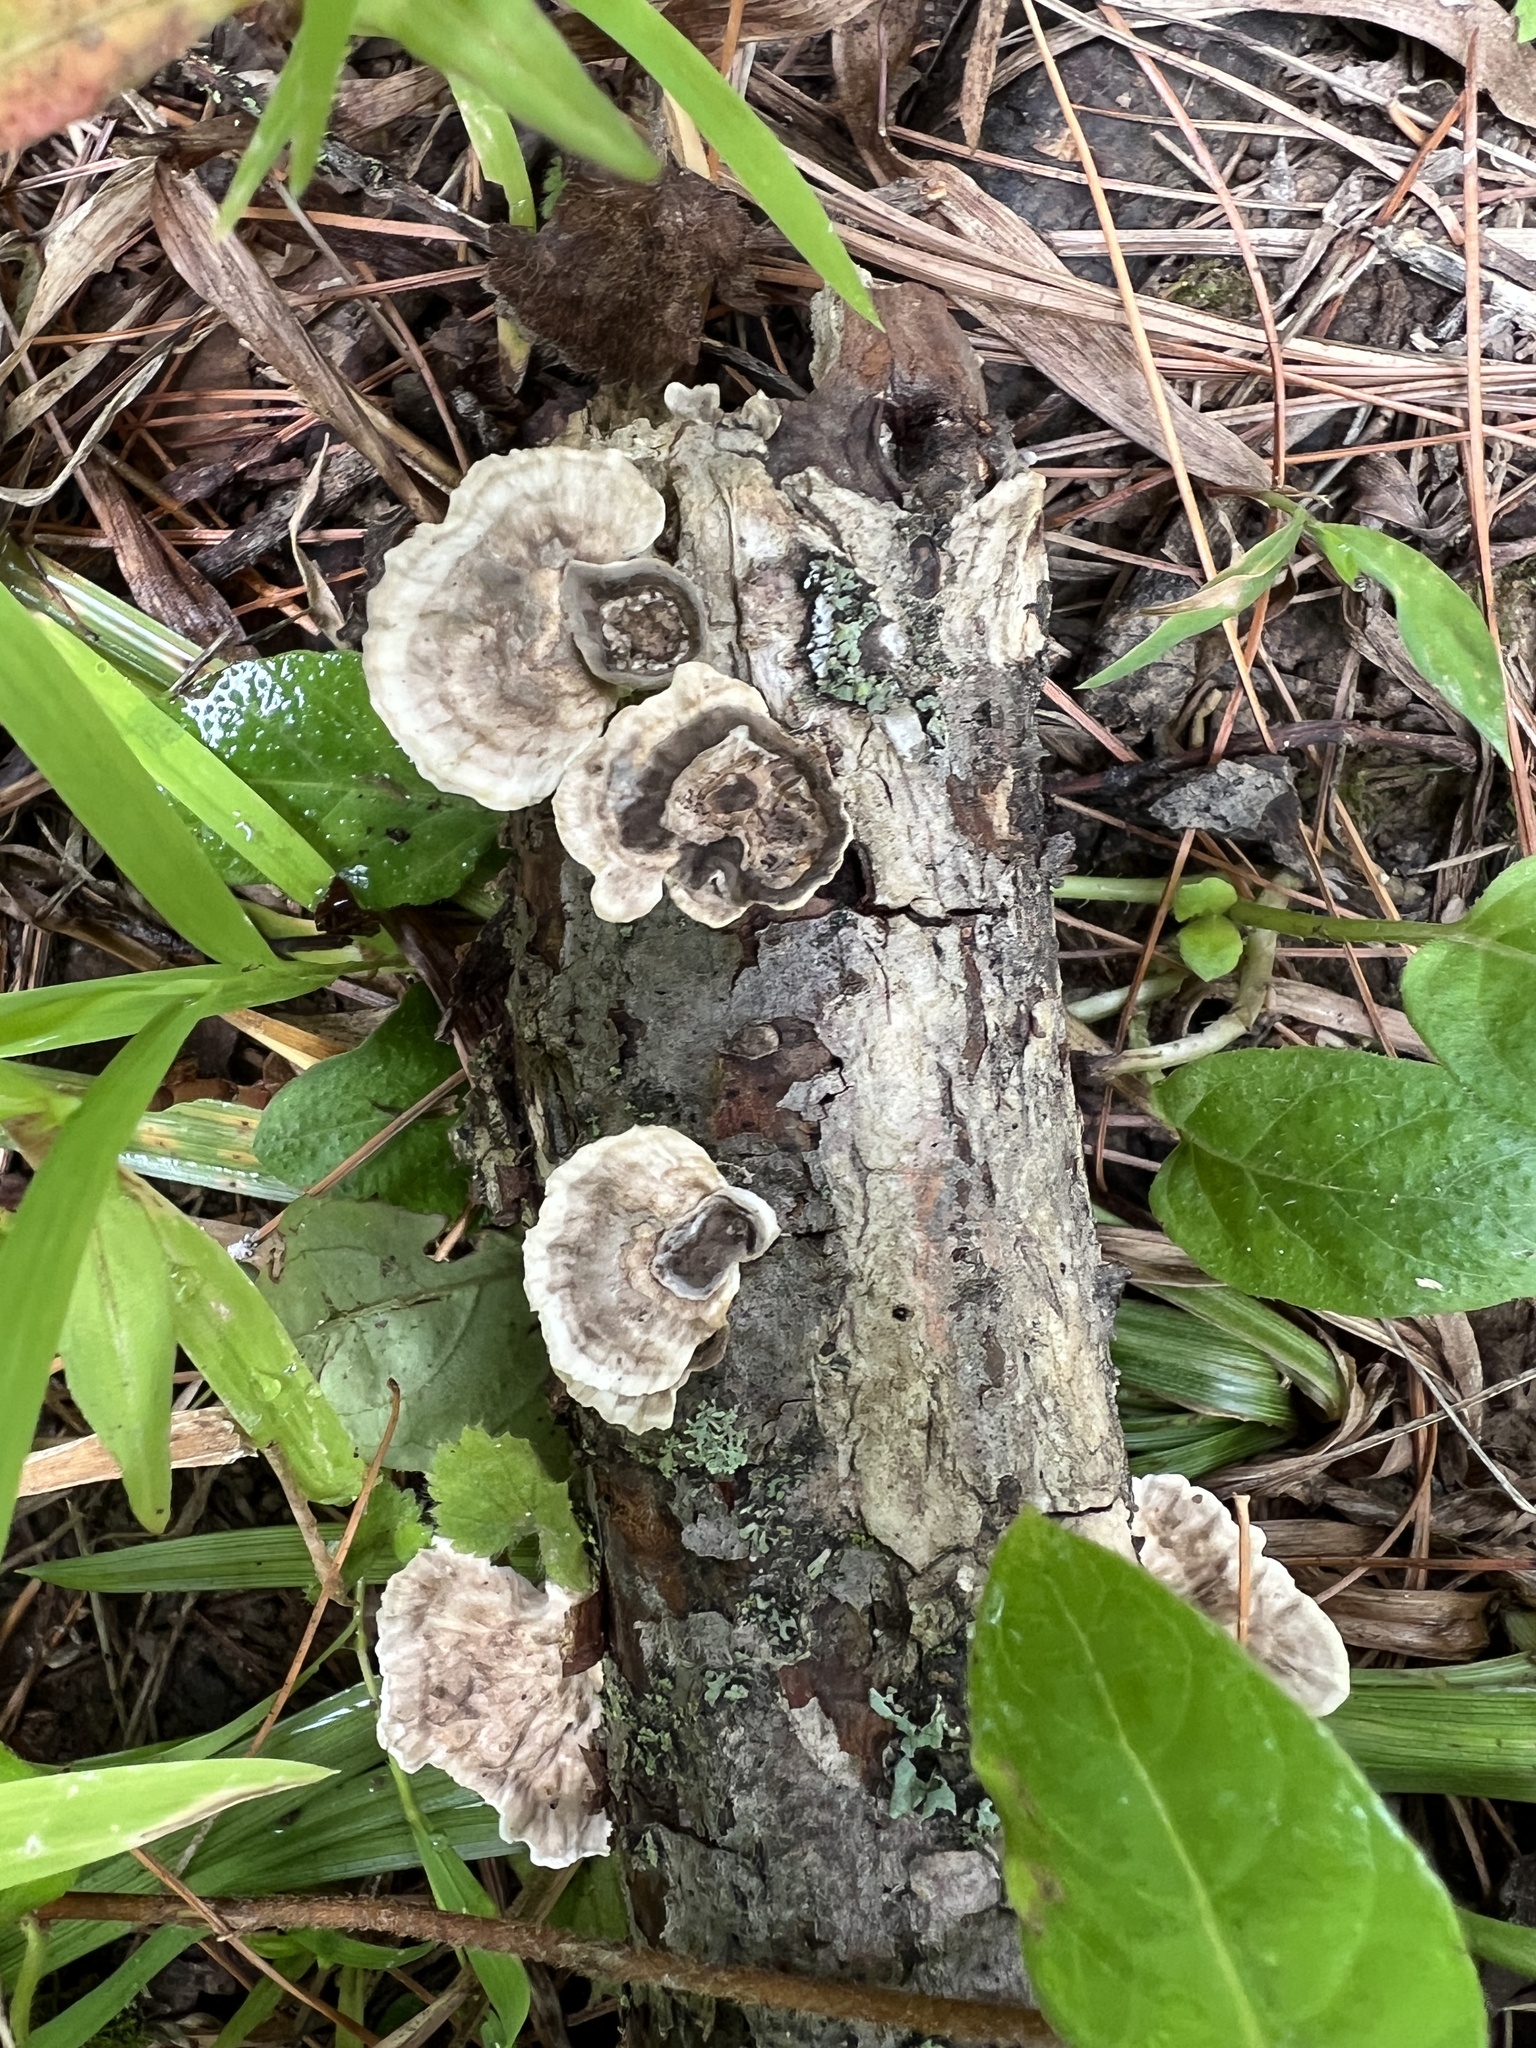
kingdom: Fungi
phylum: Basidiomycota
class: Agaricomycetes
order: Polyporales
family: Polyporaceae
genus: Poronidulus
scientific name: Poronidulus conchifer
